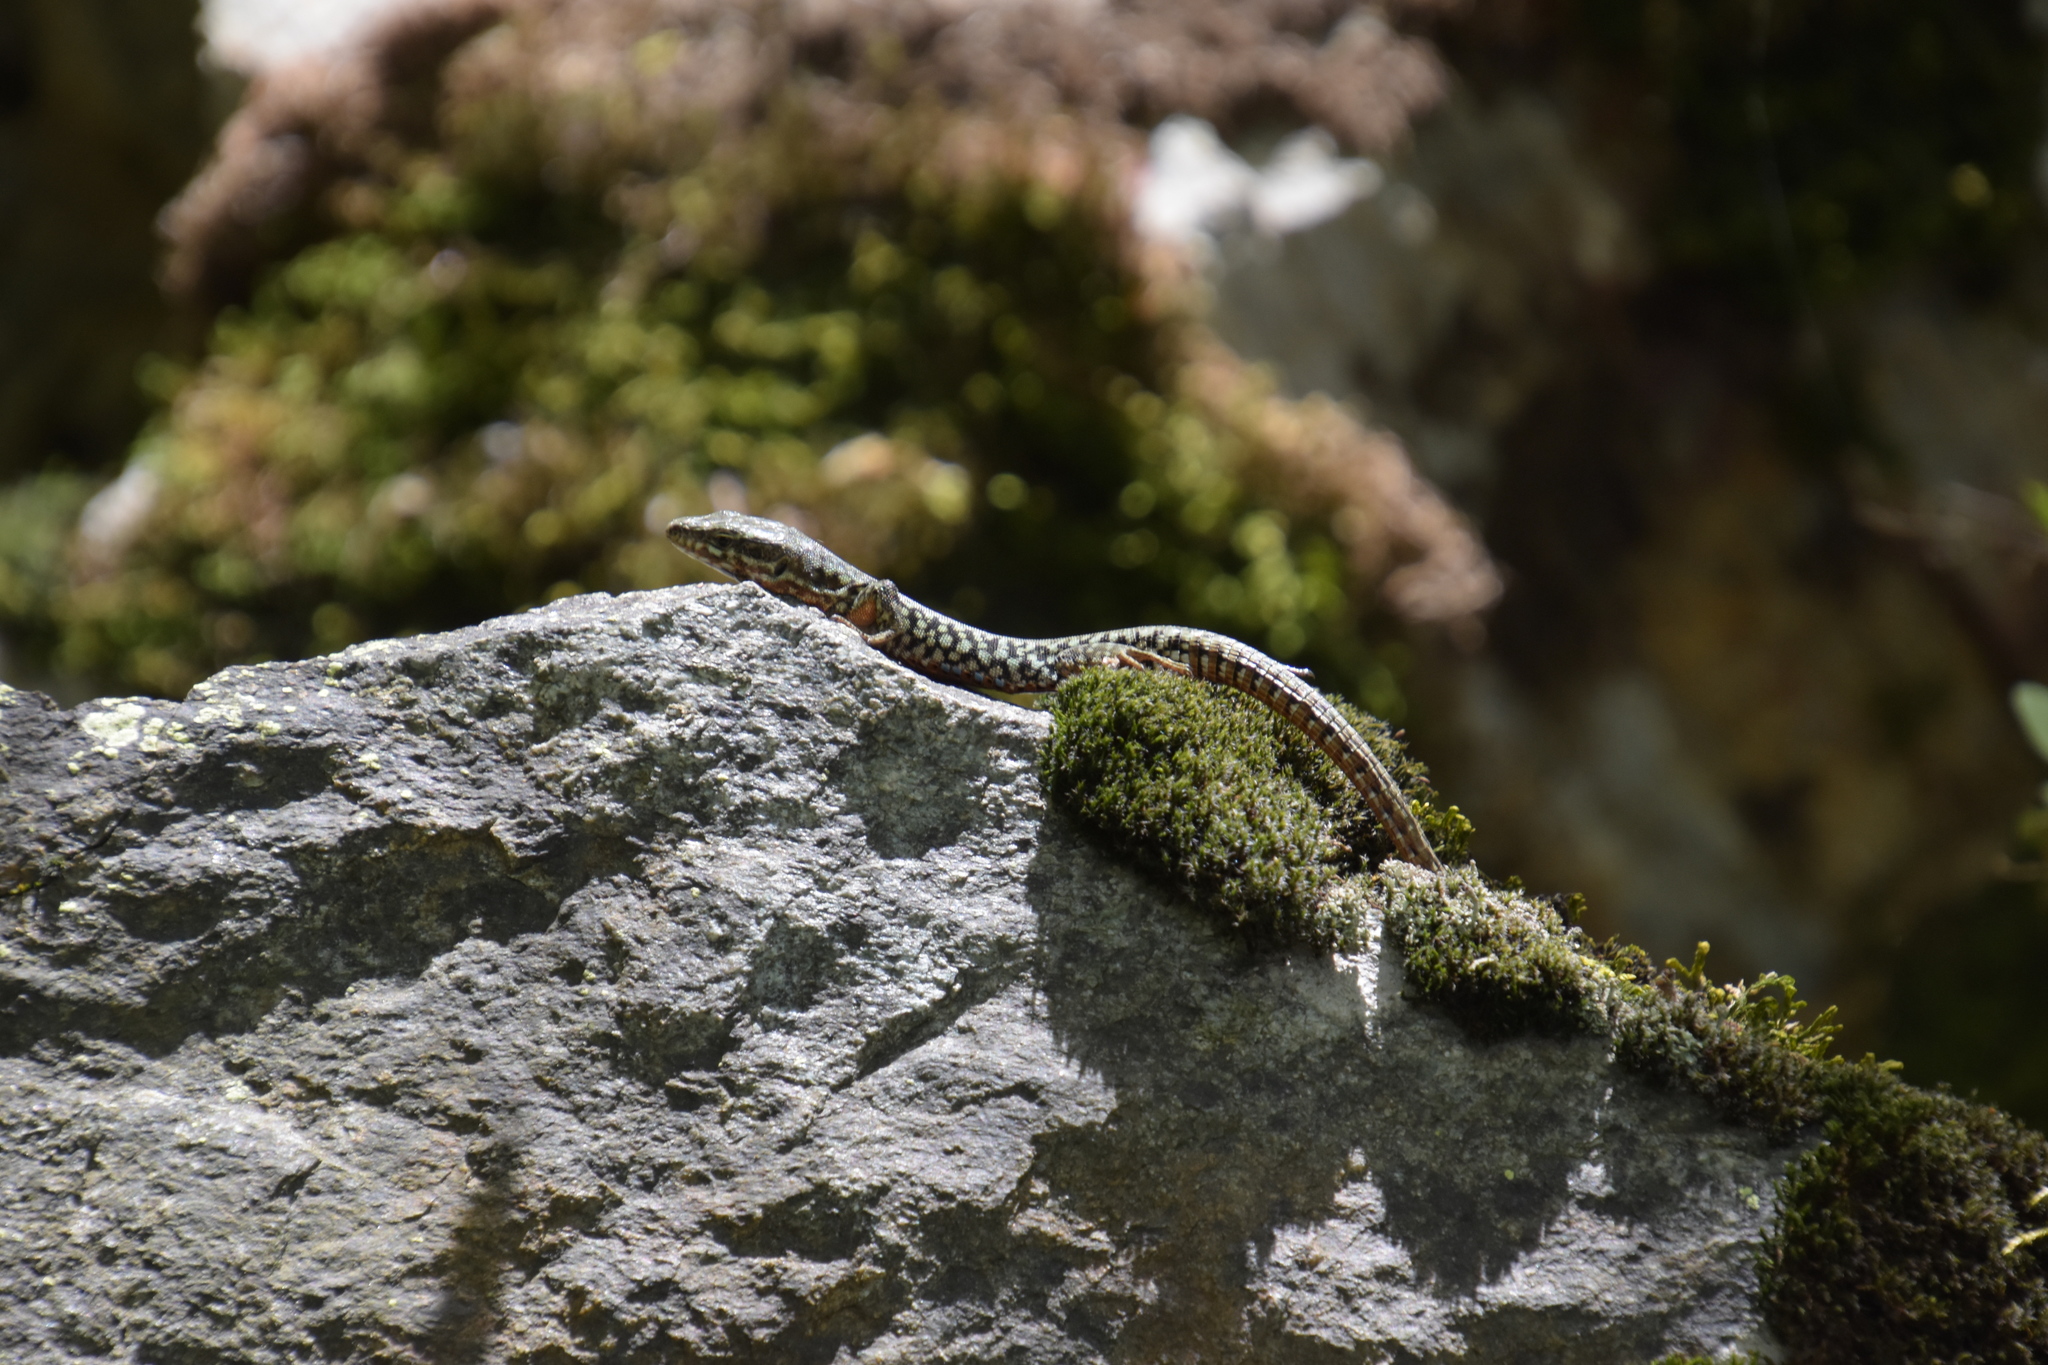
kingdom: Animalia
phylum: Chordata
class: Squamata
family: Lacertidae
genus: Podarcis
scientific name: Podarcis muralis
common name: Common wall lizard
